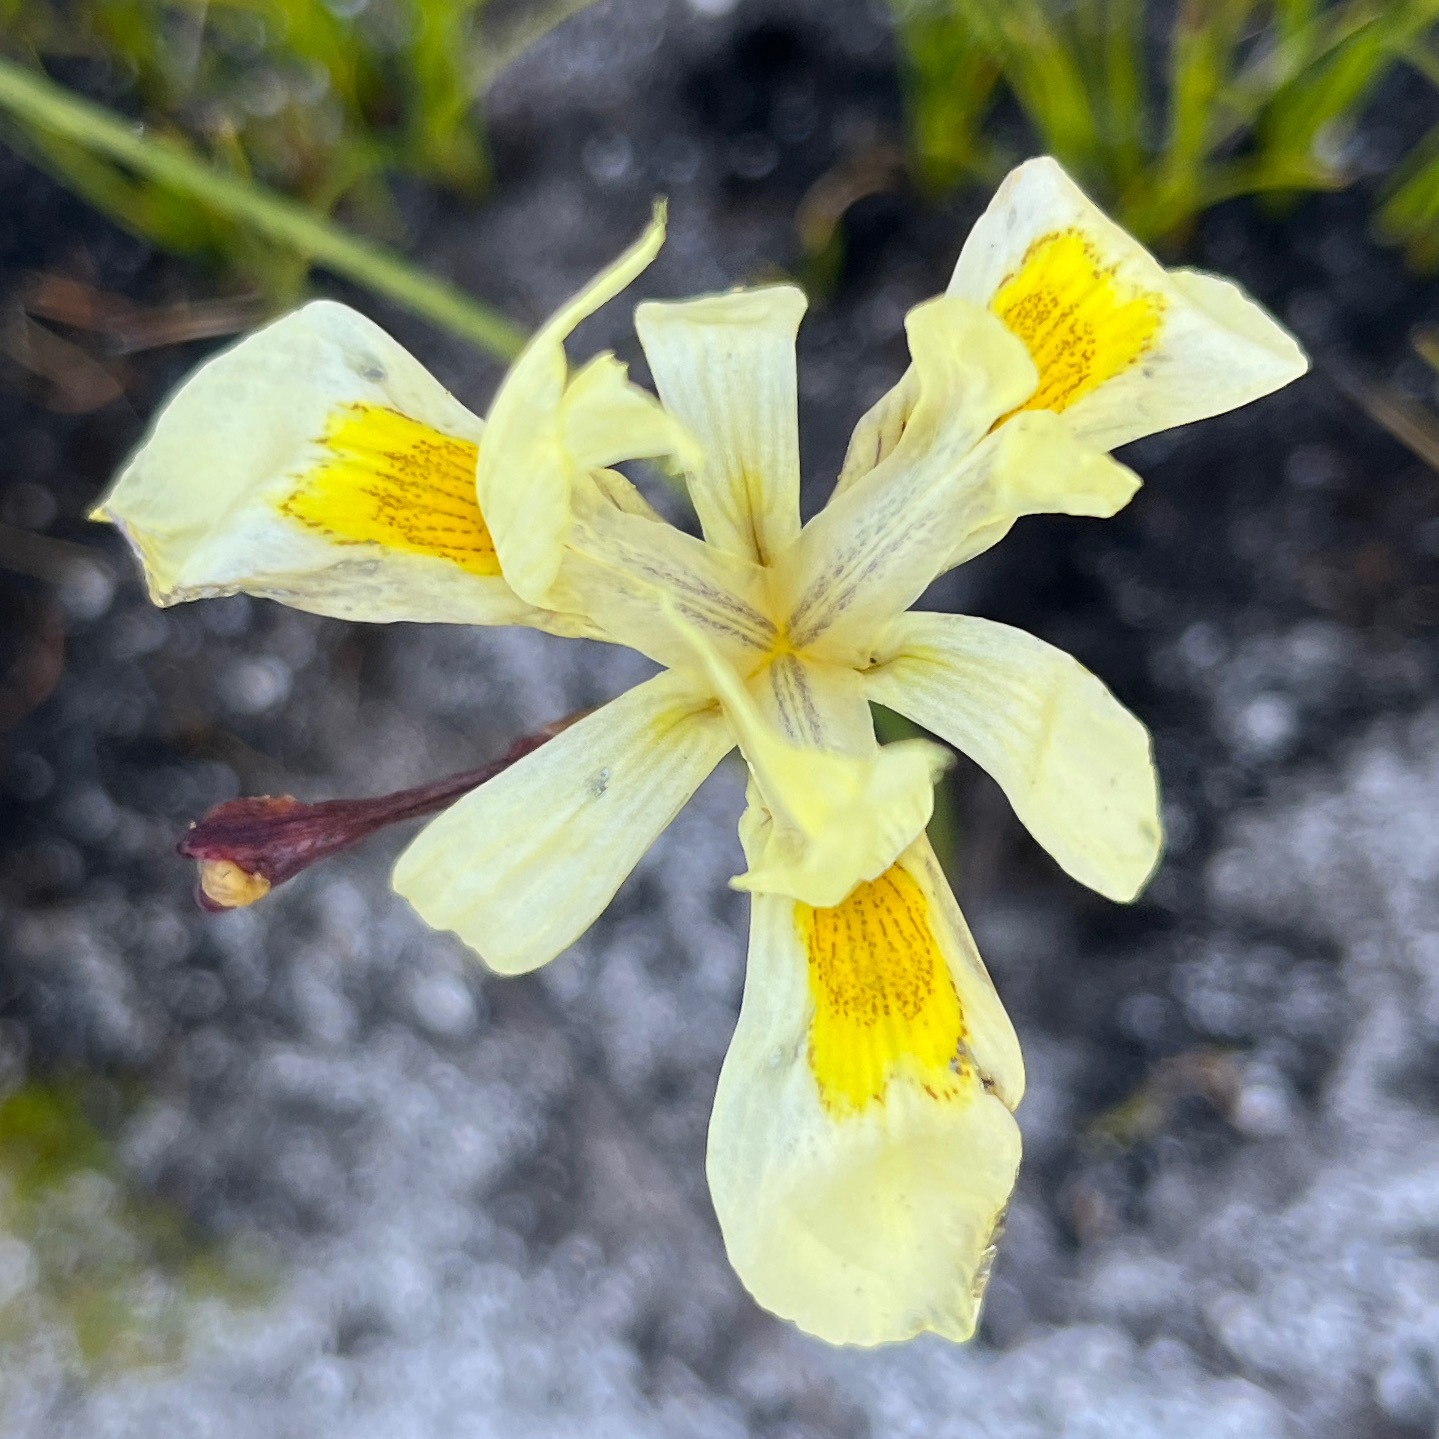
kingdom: Plantae
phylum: Tracheophyta
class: Liliopsida
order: Asparagales
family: Iridaceae
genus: Moraea
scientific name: Moraea anomala
